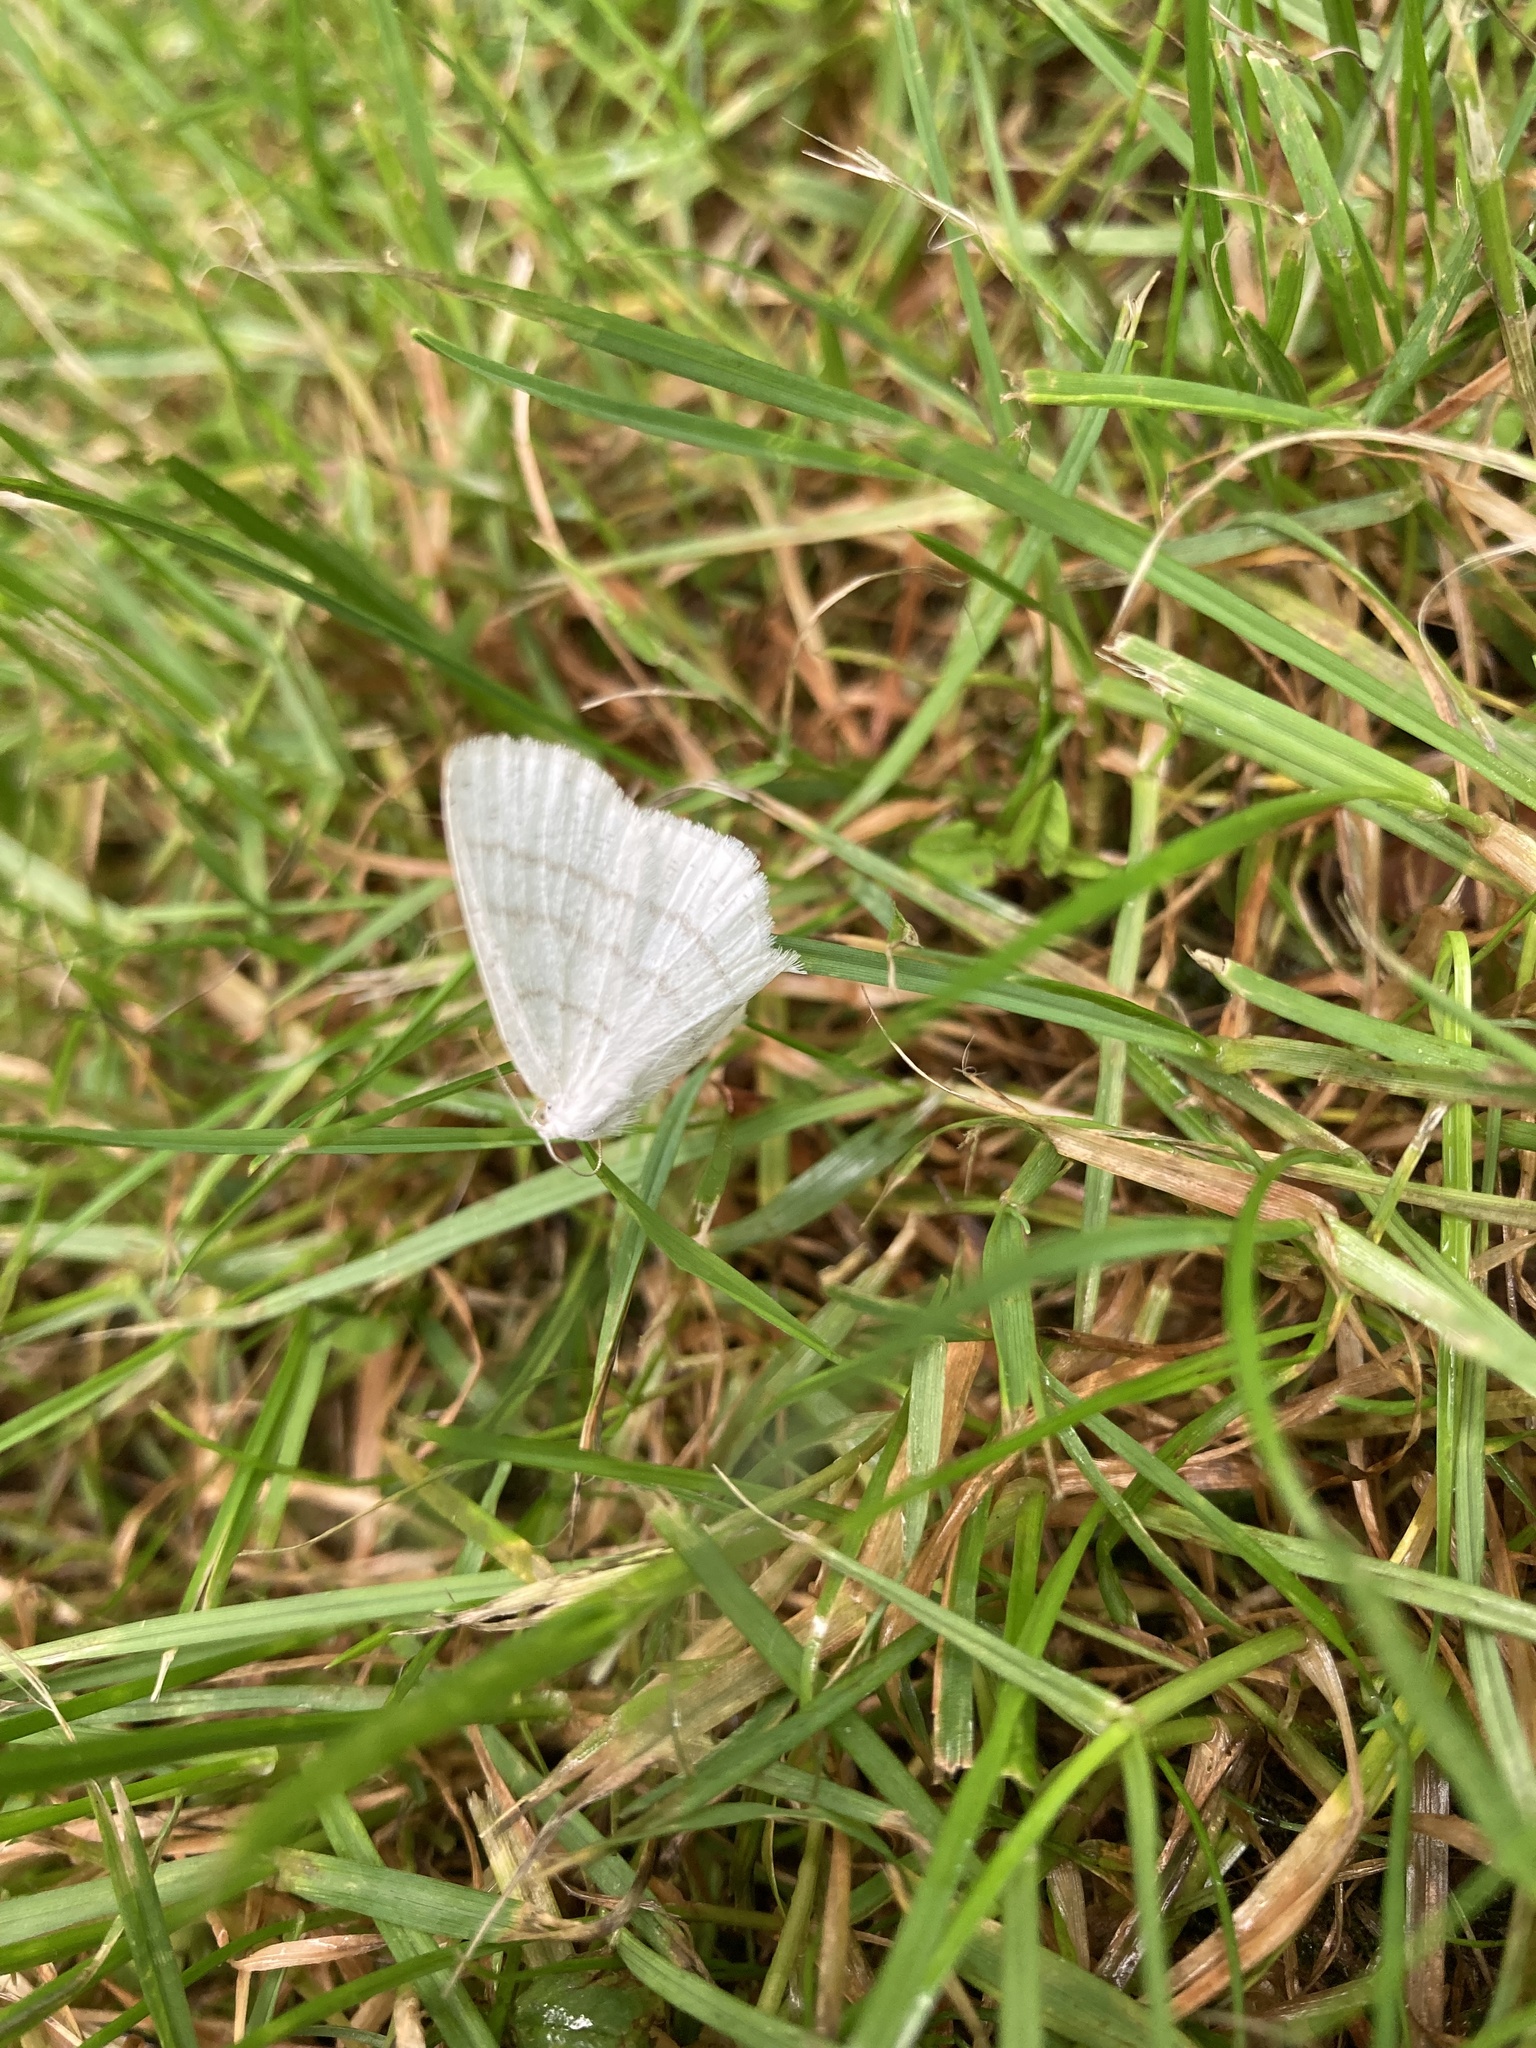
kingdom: Animalia
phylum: Arthropoda
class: Insecta
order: Lepidoptera
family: Geometridae
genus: Cabera
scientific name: Cabera pusaria
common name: Common white wave
